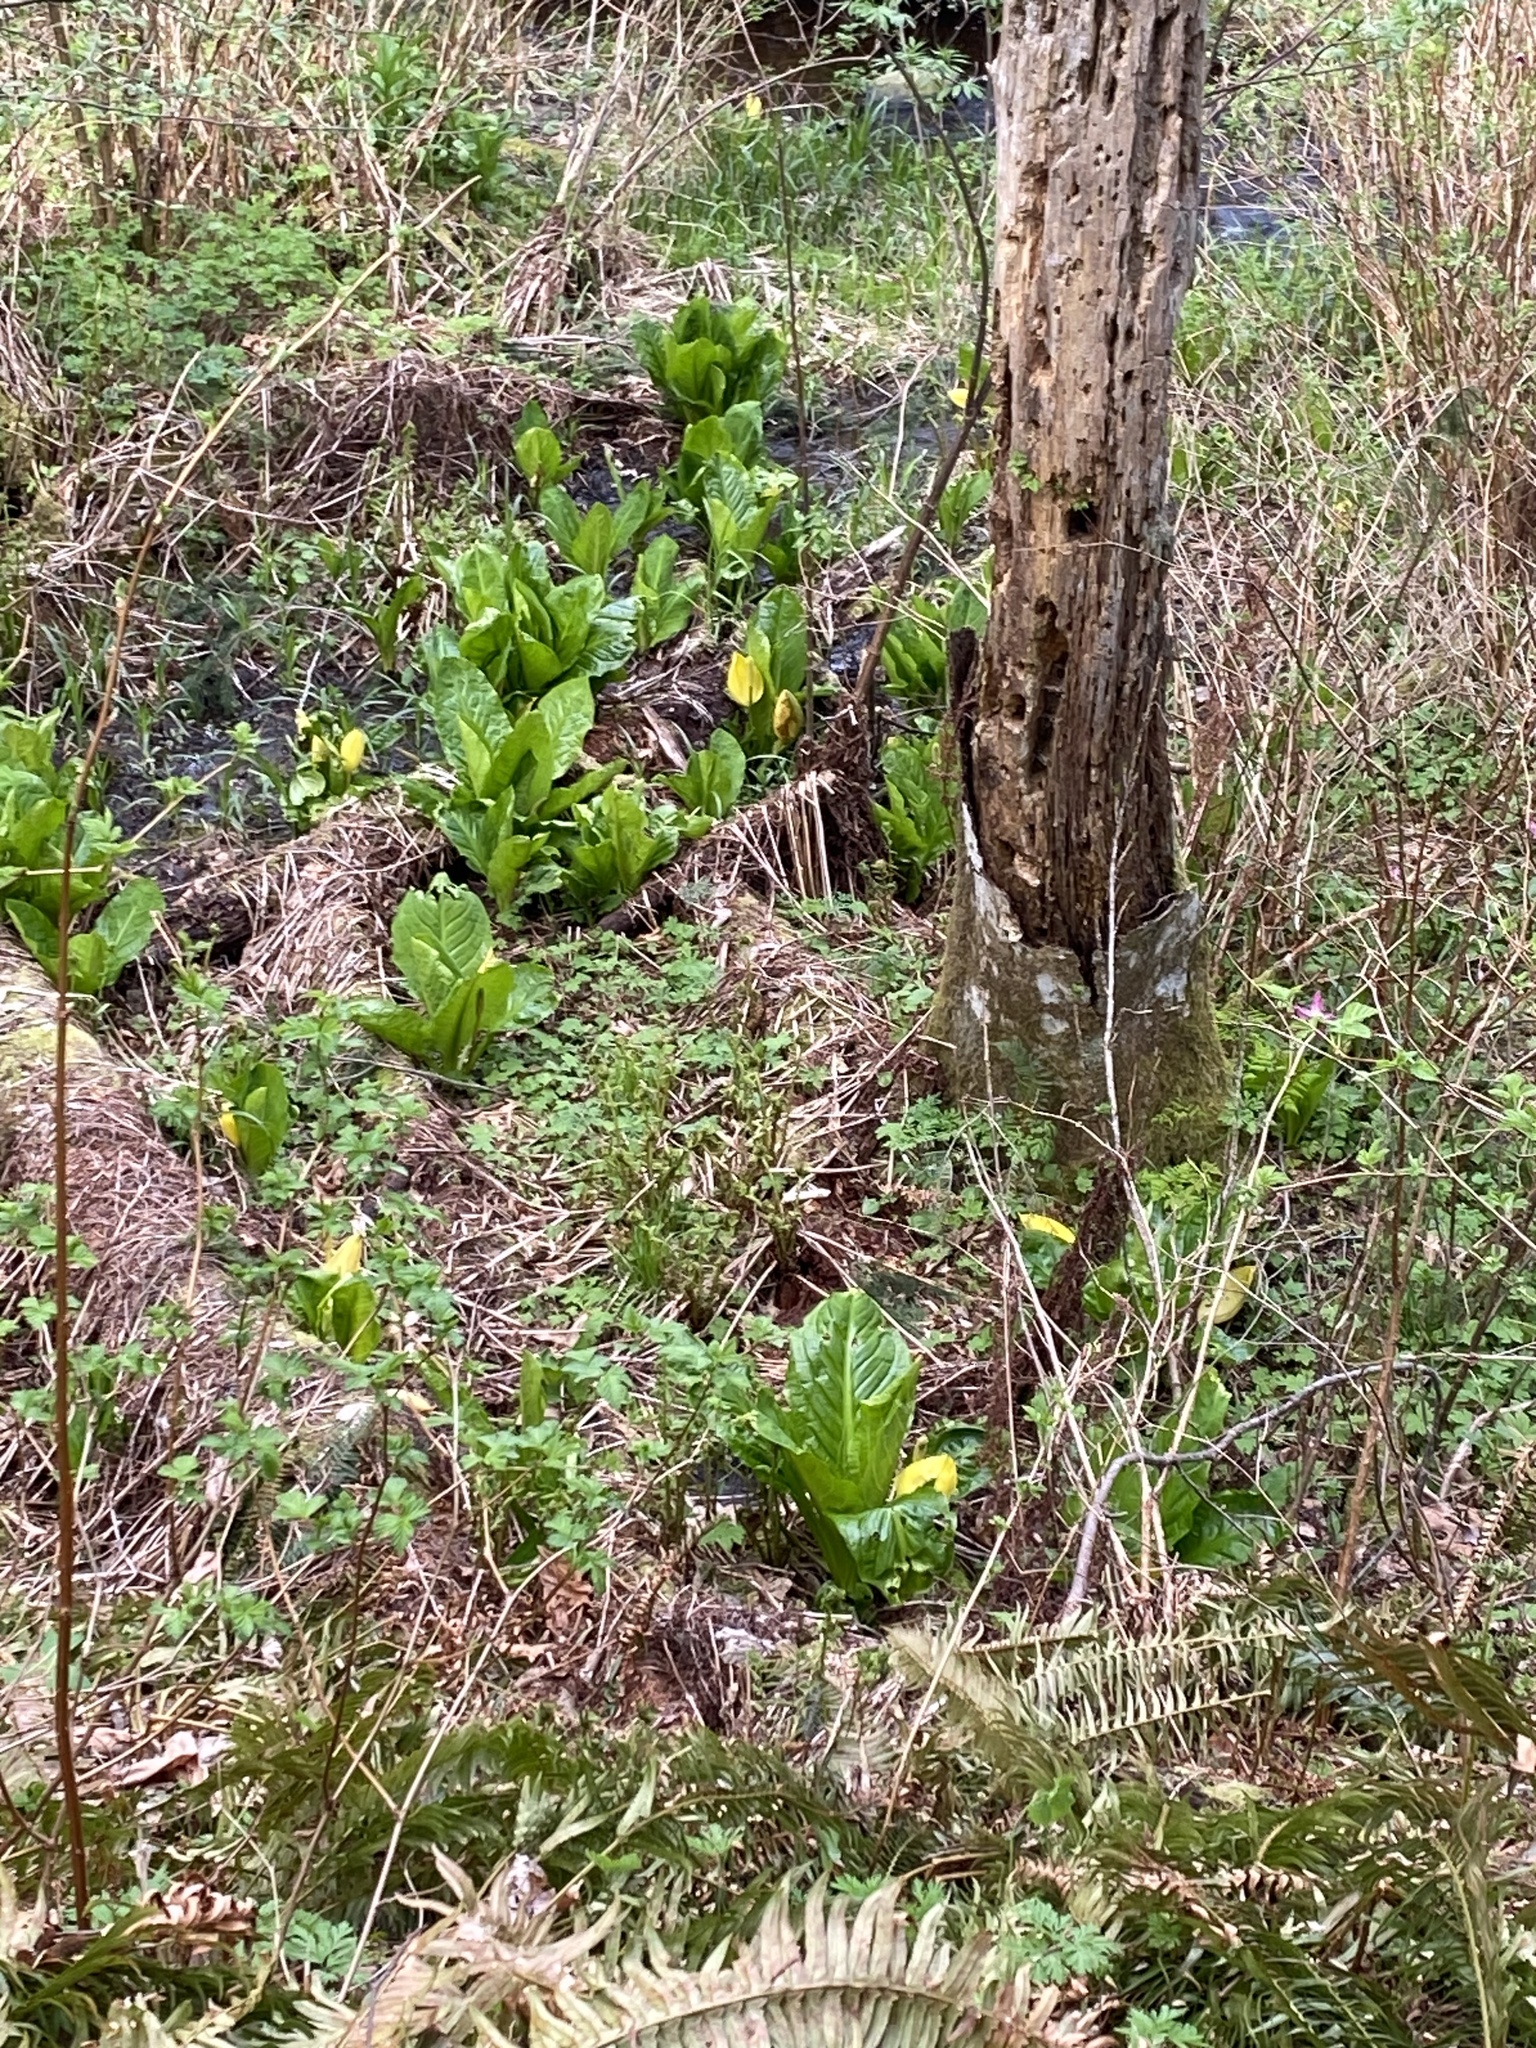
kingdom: Plantae
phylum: Tracheophyta
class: Liliopsida
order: Alismatales
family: Araceae
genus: Lysichiton
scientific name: Lysichiton americanus
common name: American skunk cabbage
